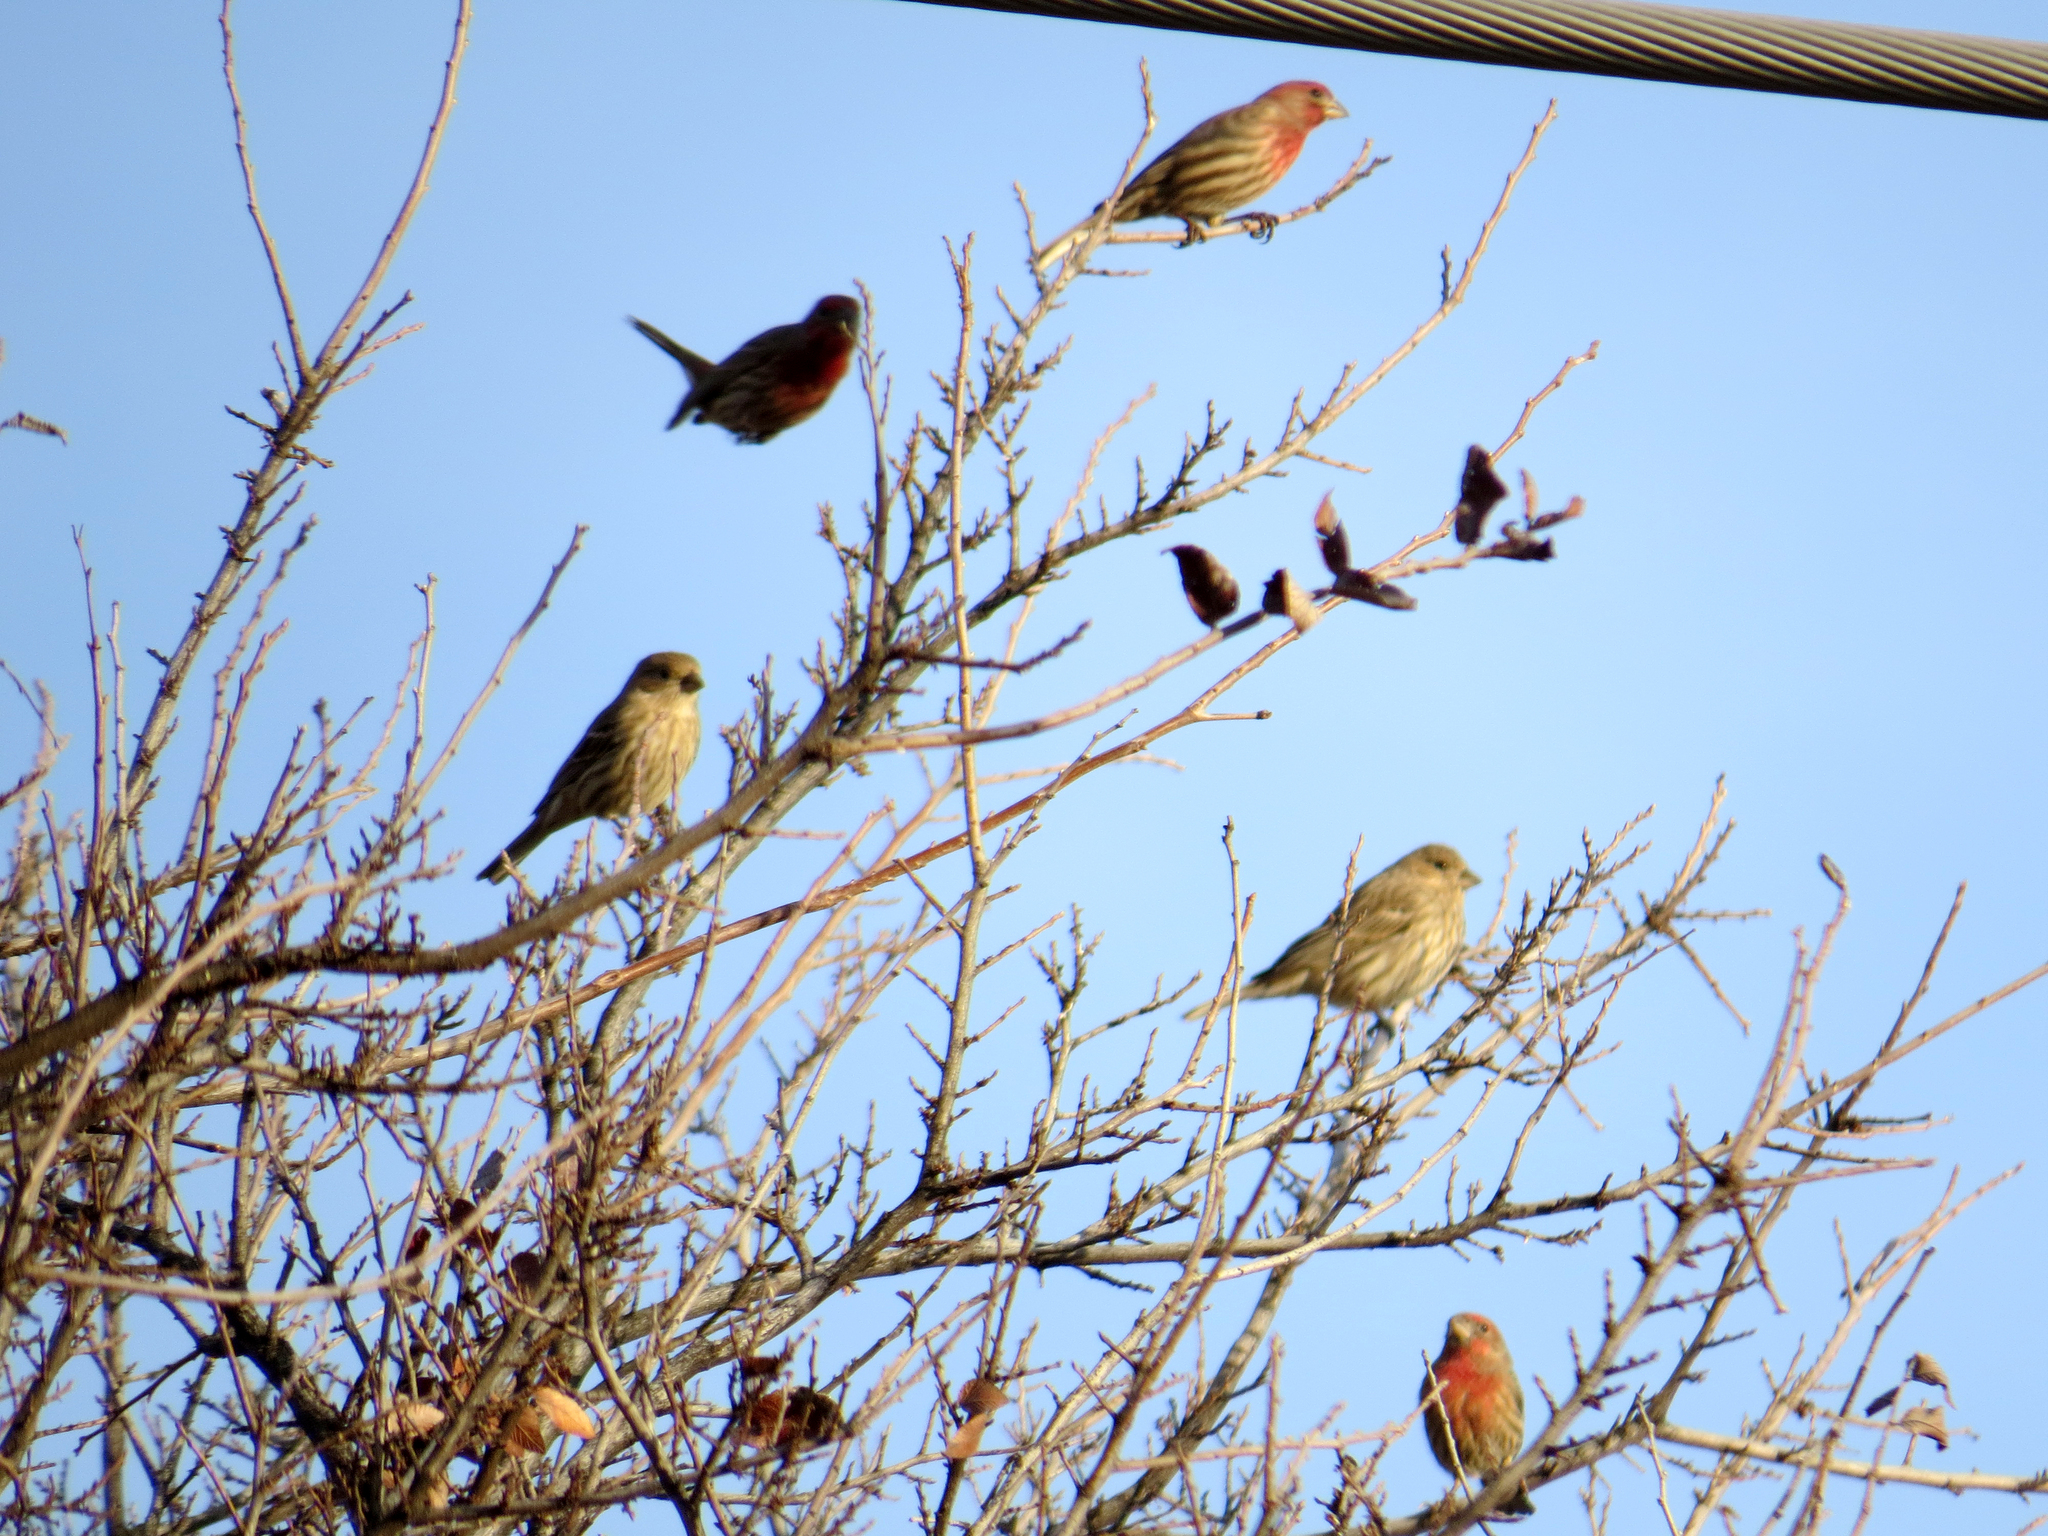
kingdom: Animalia
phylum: Chordata
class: Aves
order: Passeriformes
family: Fringillidae
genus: Haemorhous
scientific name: Haemorhous mexicanus
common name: House finch
